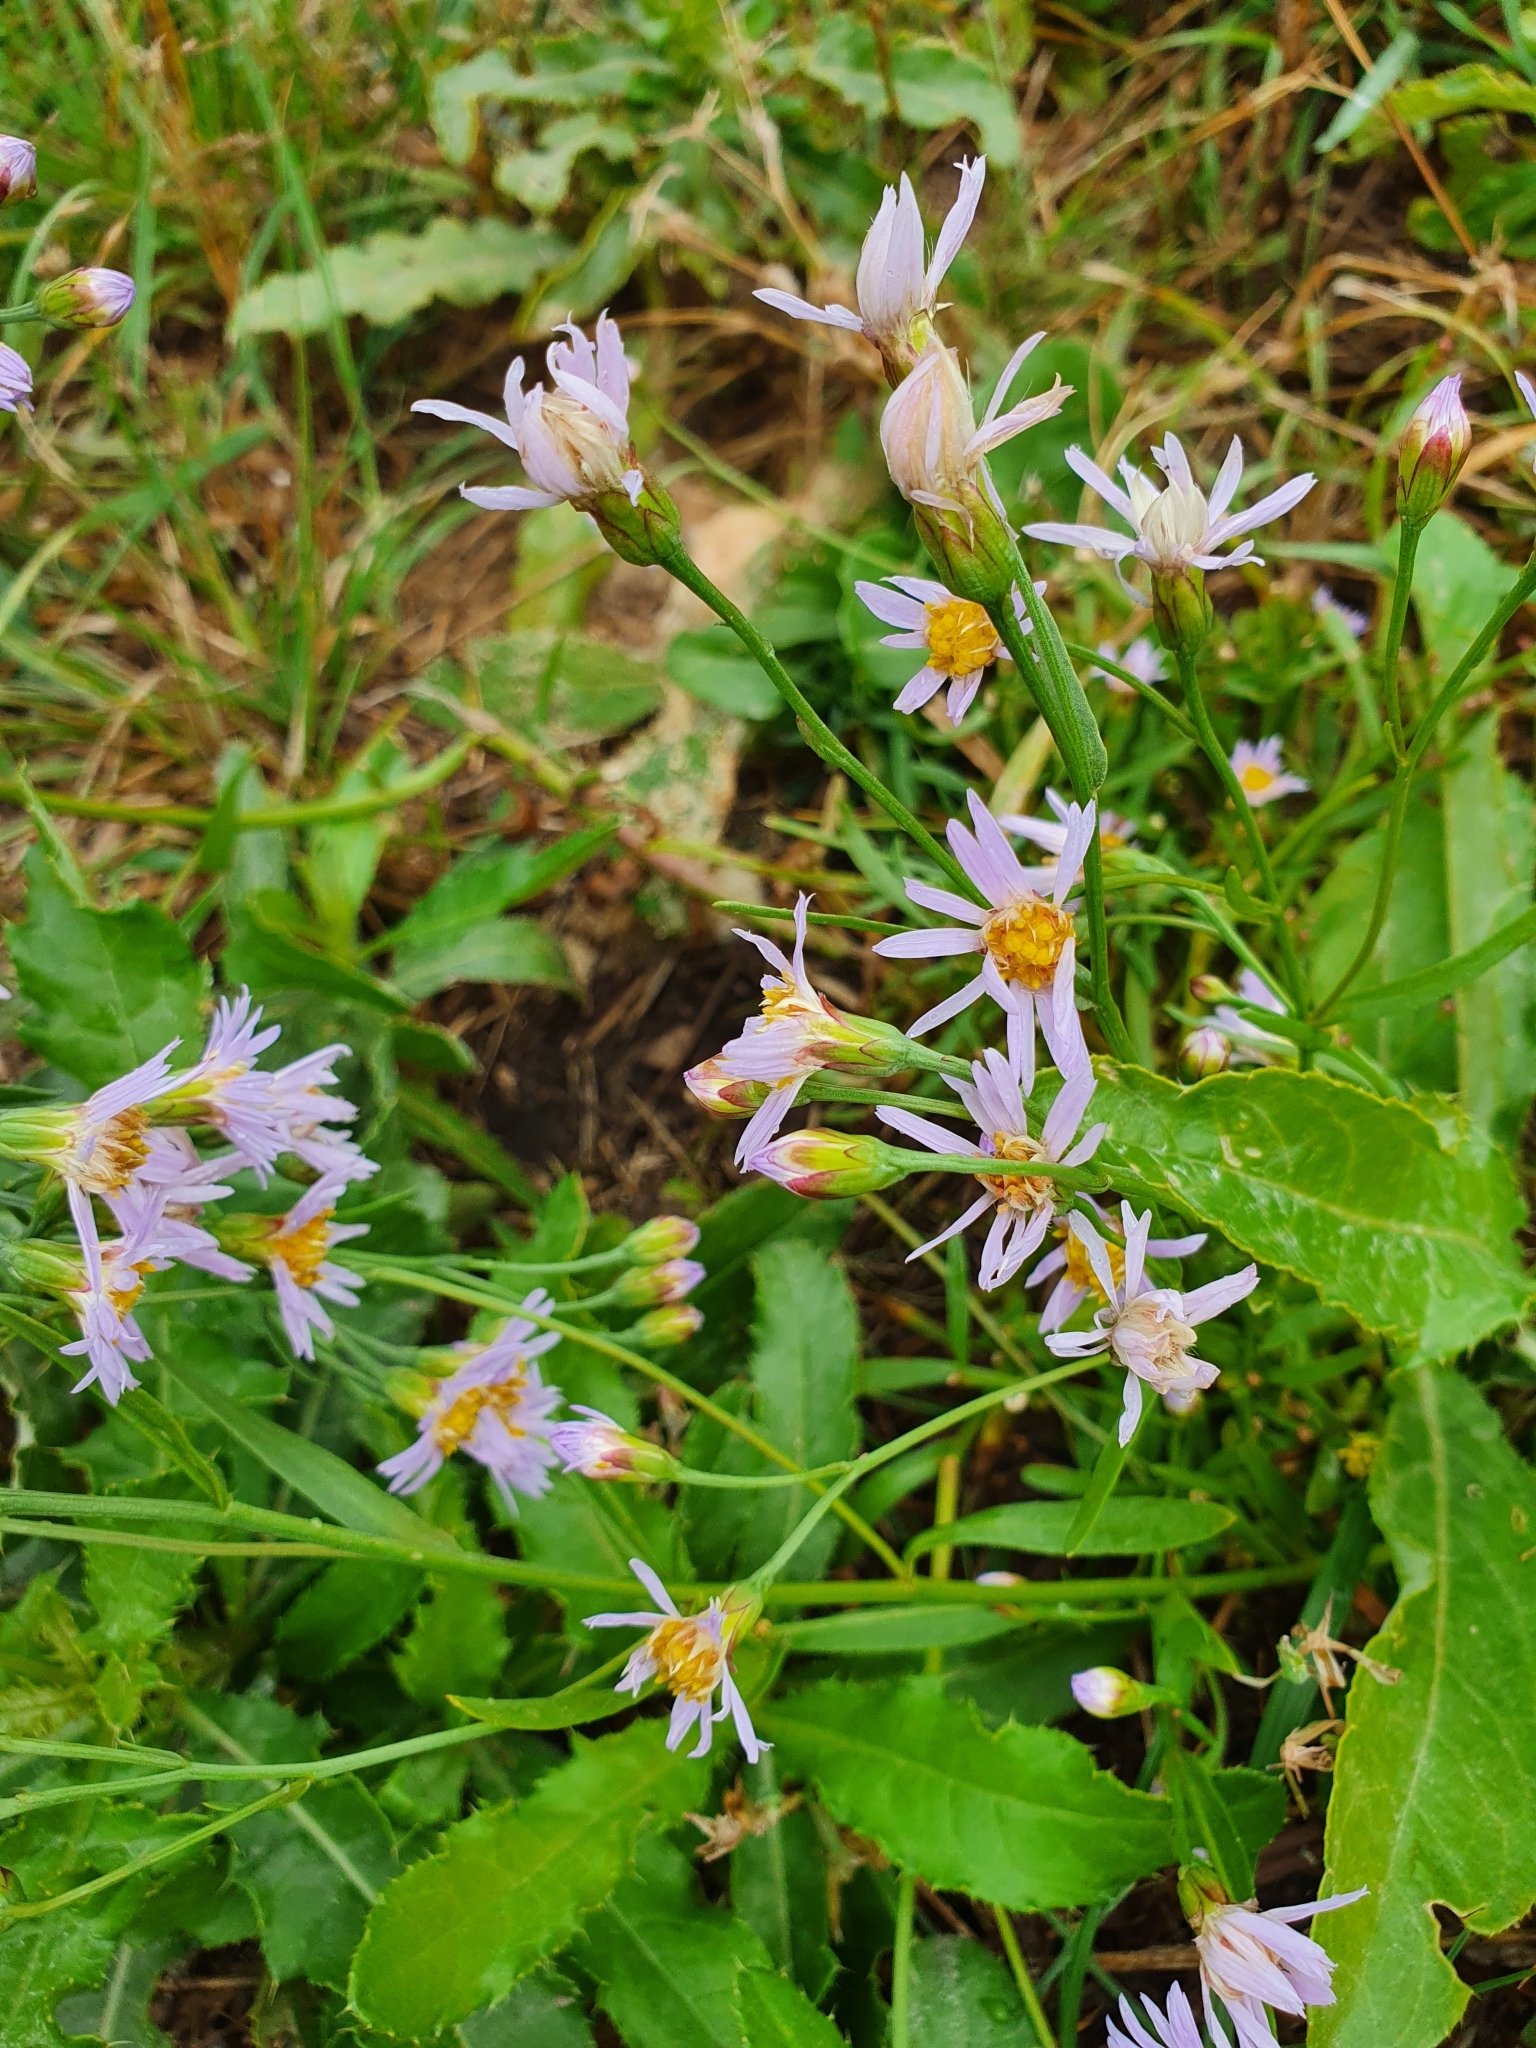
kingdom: Plantae
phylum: Tracheophyta
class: Magnoliopsida
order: Asterales
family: Asteraceae
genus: Tripolium
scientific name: Tripolium pannonicum
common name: Sea aster
